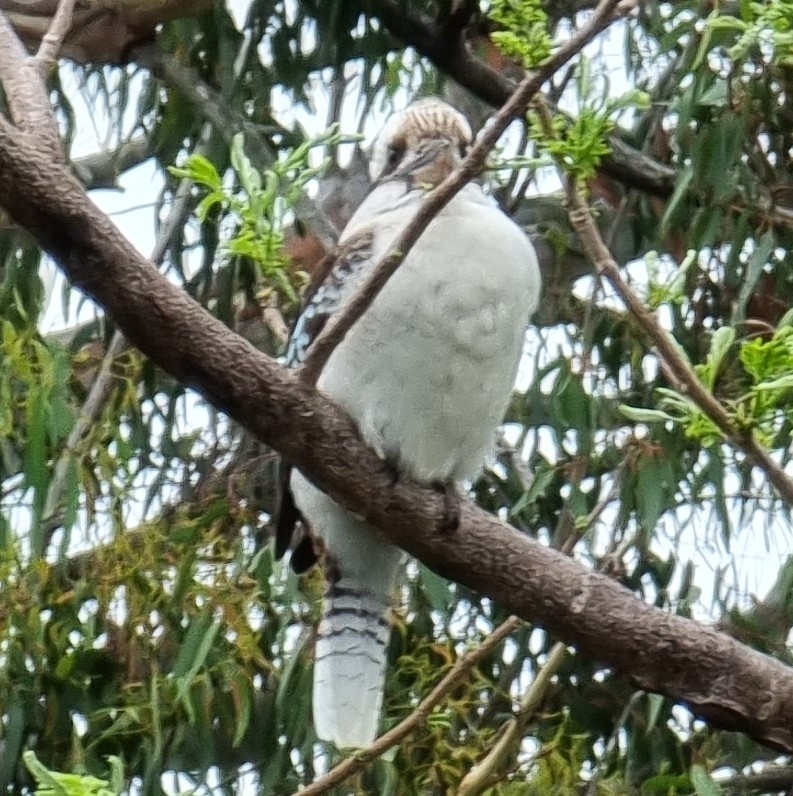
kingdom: Animalia
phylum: Chordata
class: Aves
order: Coraciiformes
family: Alcedinidae
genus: Dacelo
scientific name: Dacelo novaeguineae
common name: Laughing kookaburra
